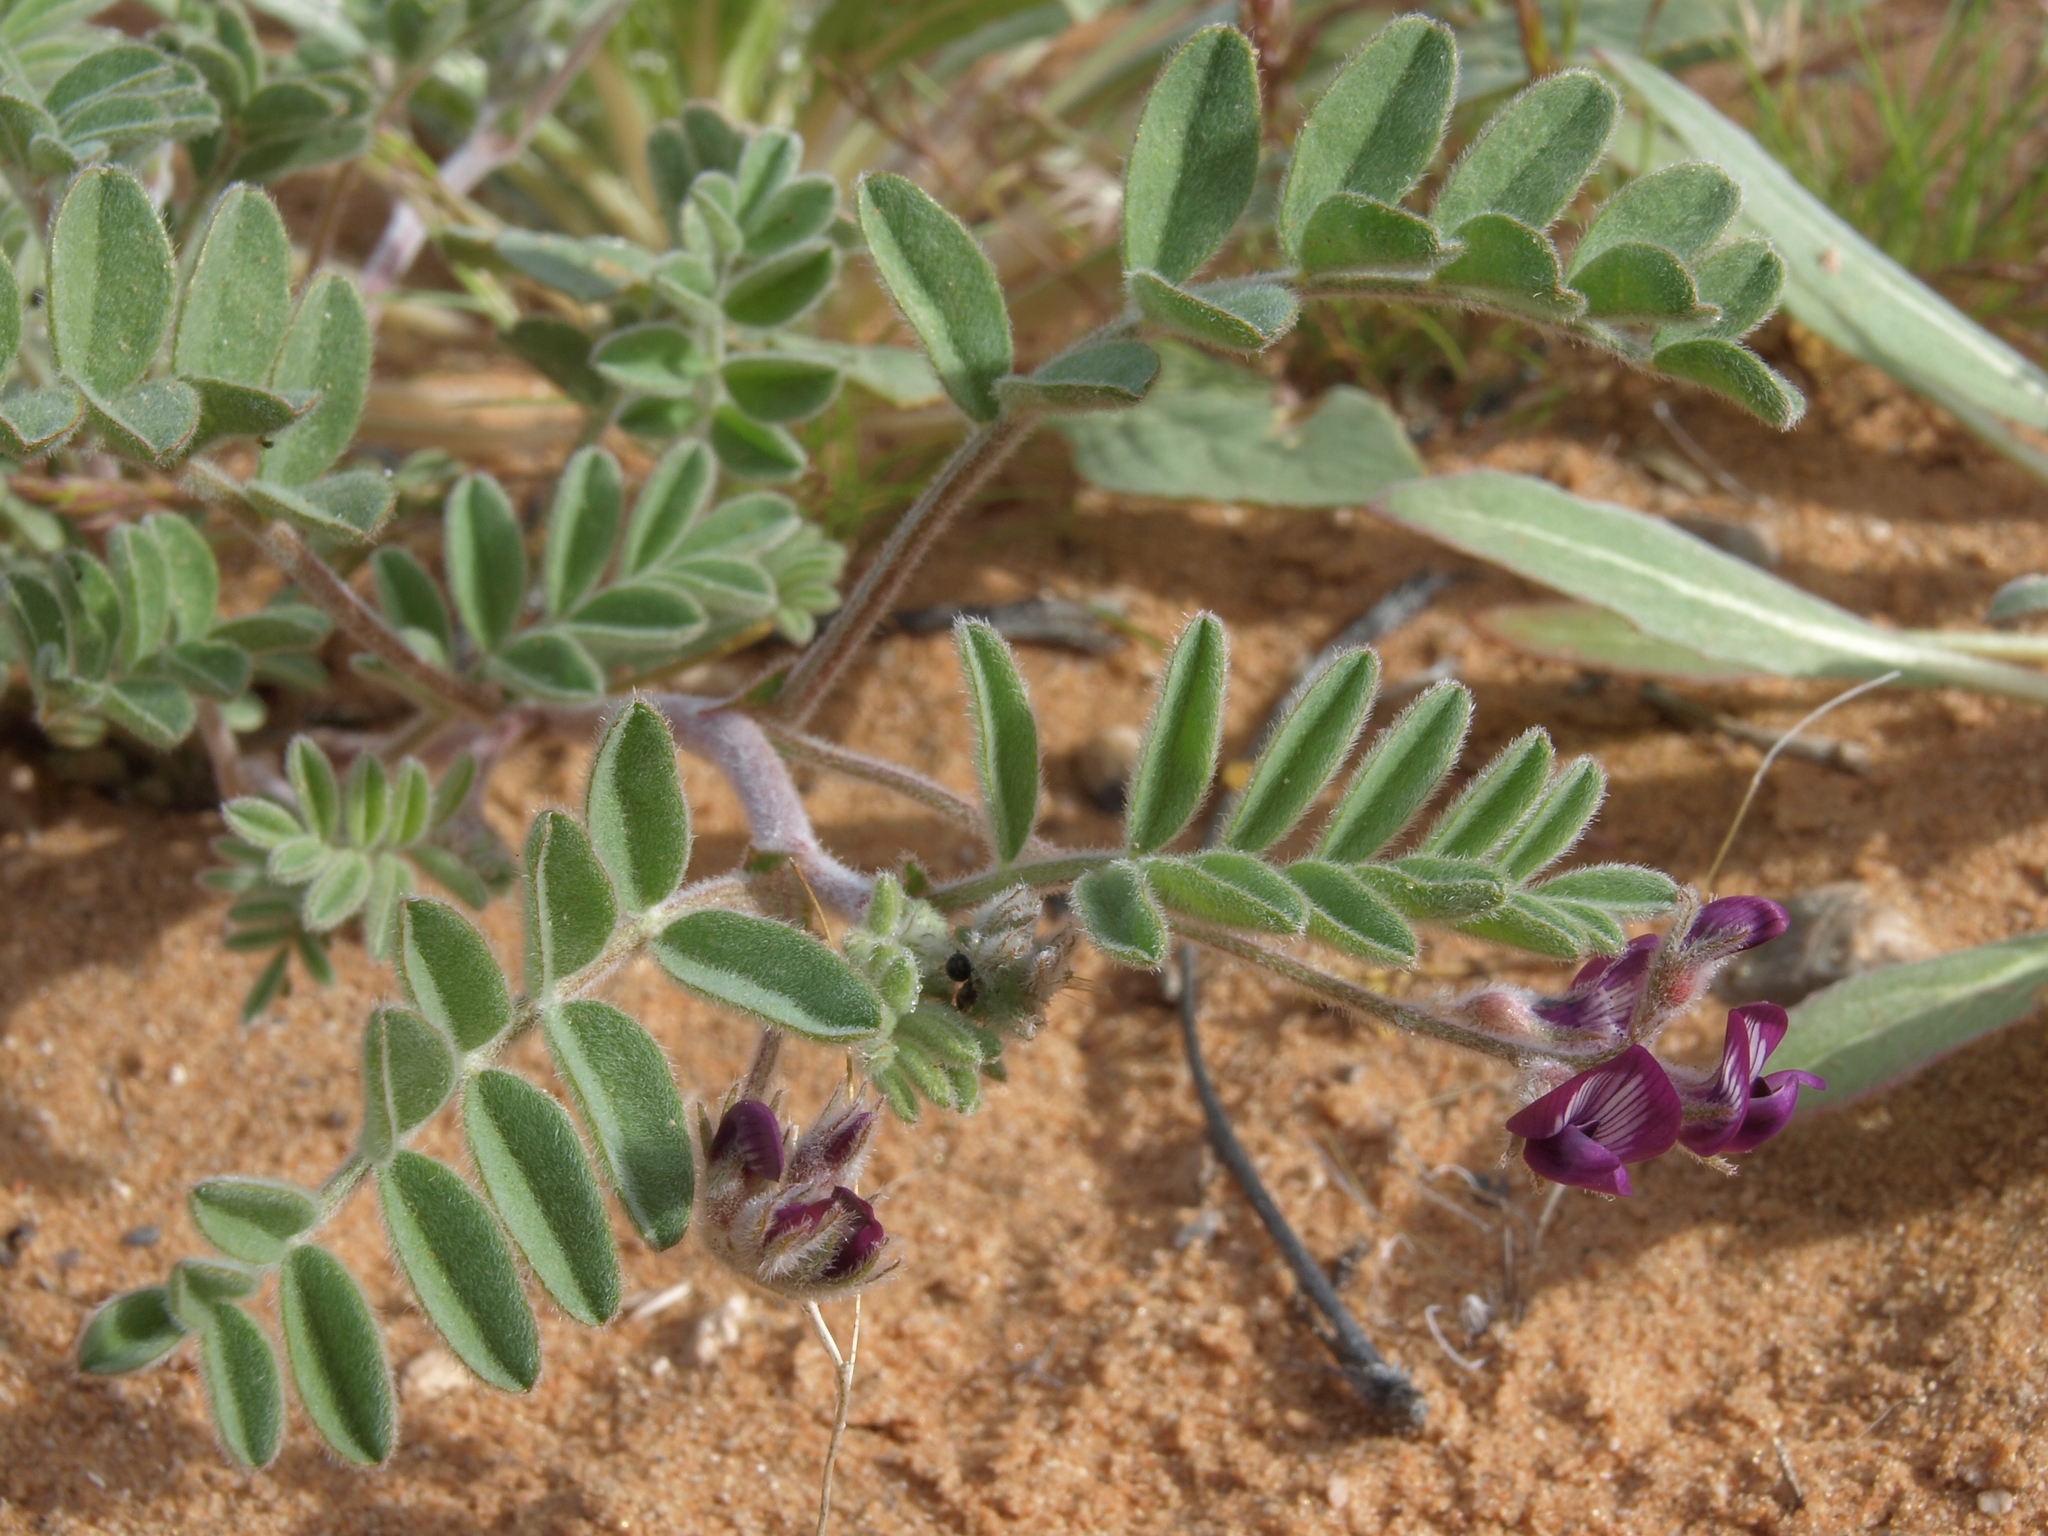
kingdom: Plantae
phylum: Tracheophyta
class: Magnoliopsida
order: Fabales
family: Fabaceae
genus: Astragalus
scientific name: Astragalus sabulonum
